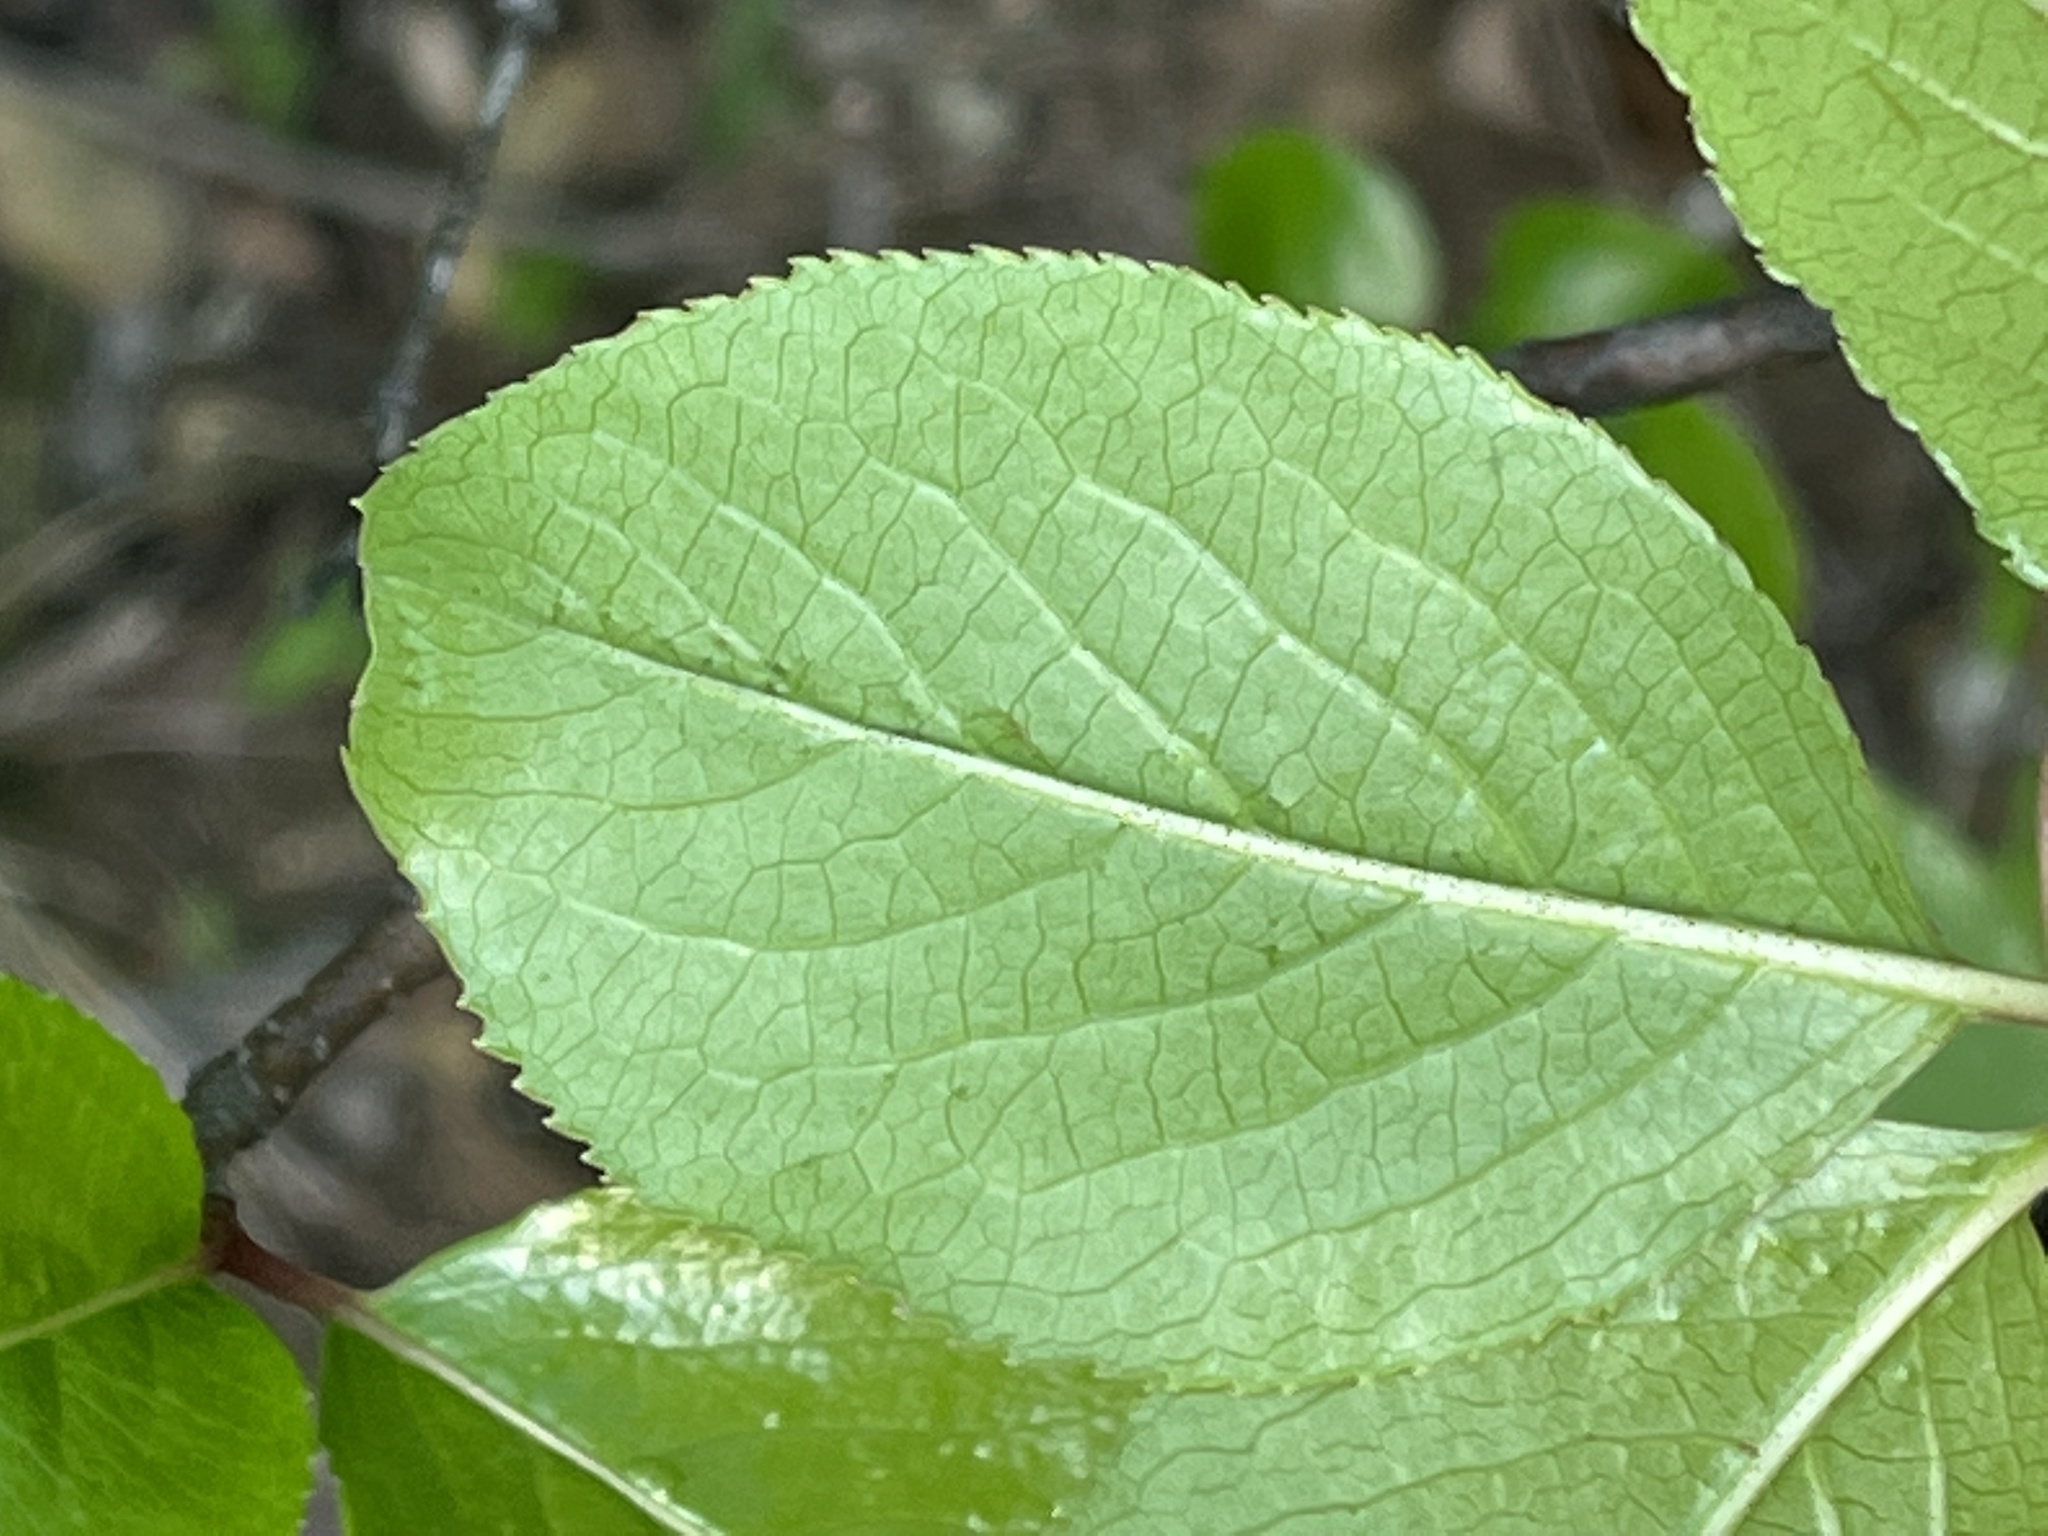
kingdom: Plantae
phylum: Tracheophyta
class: Magnoliopsida
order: Dipsacales
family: Viburnaceae
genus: Viburnum
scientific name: Viburnum rufidulum
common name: Blue haw
